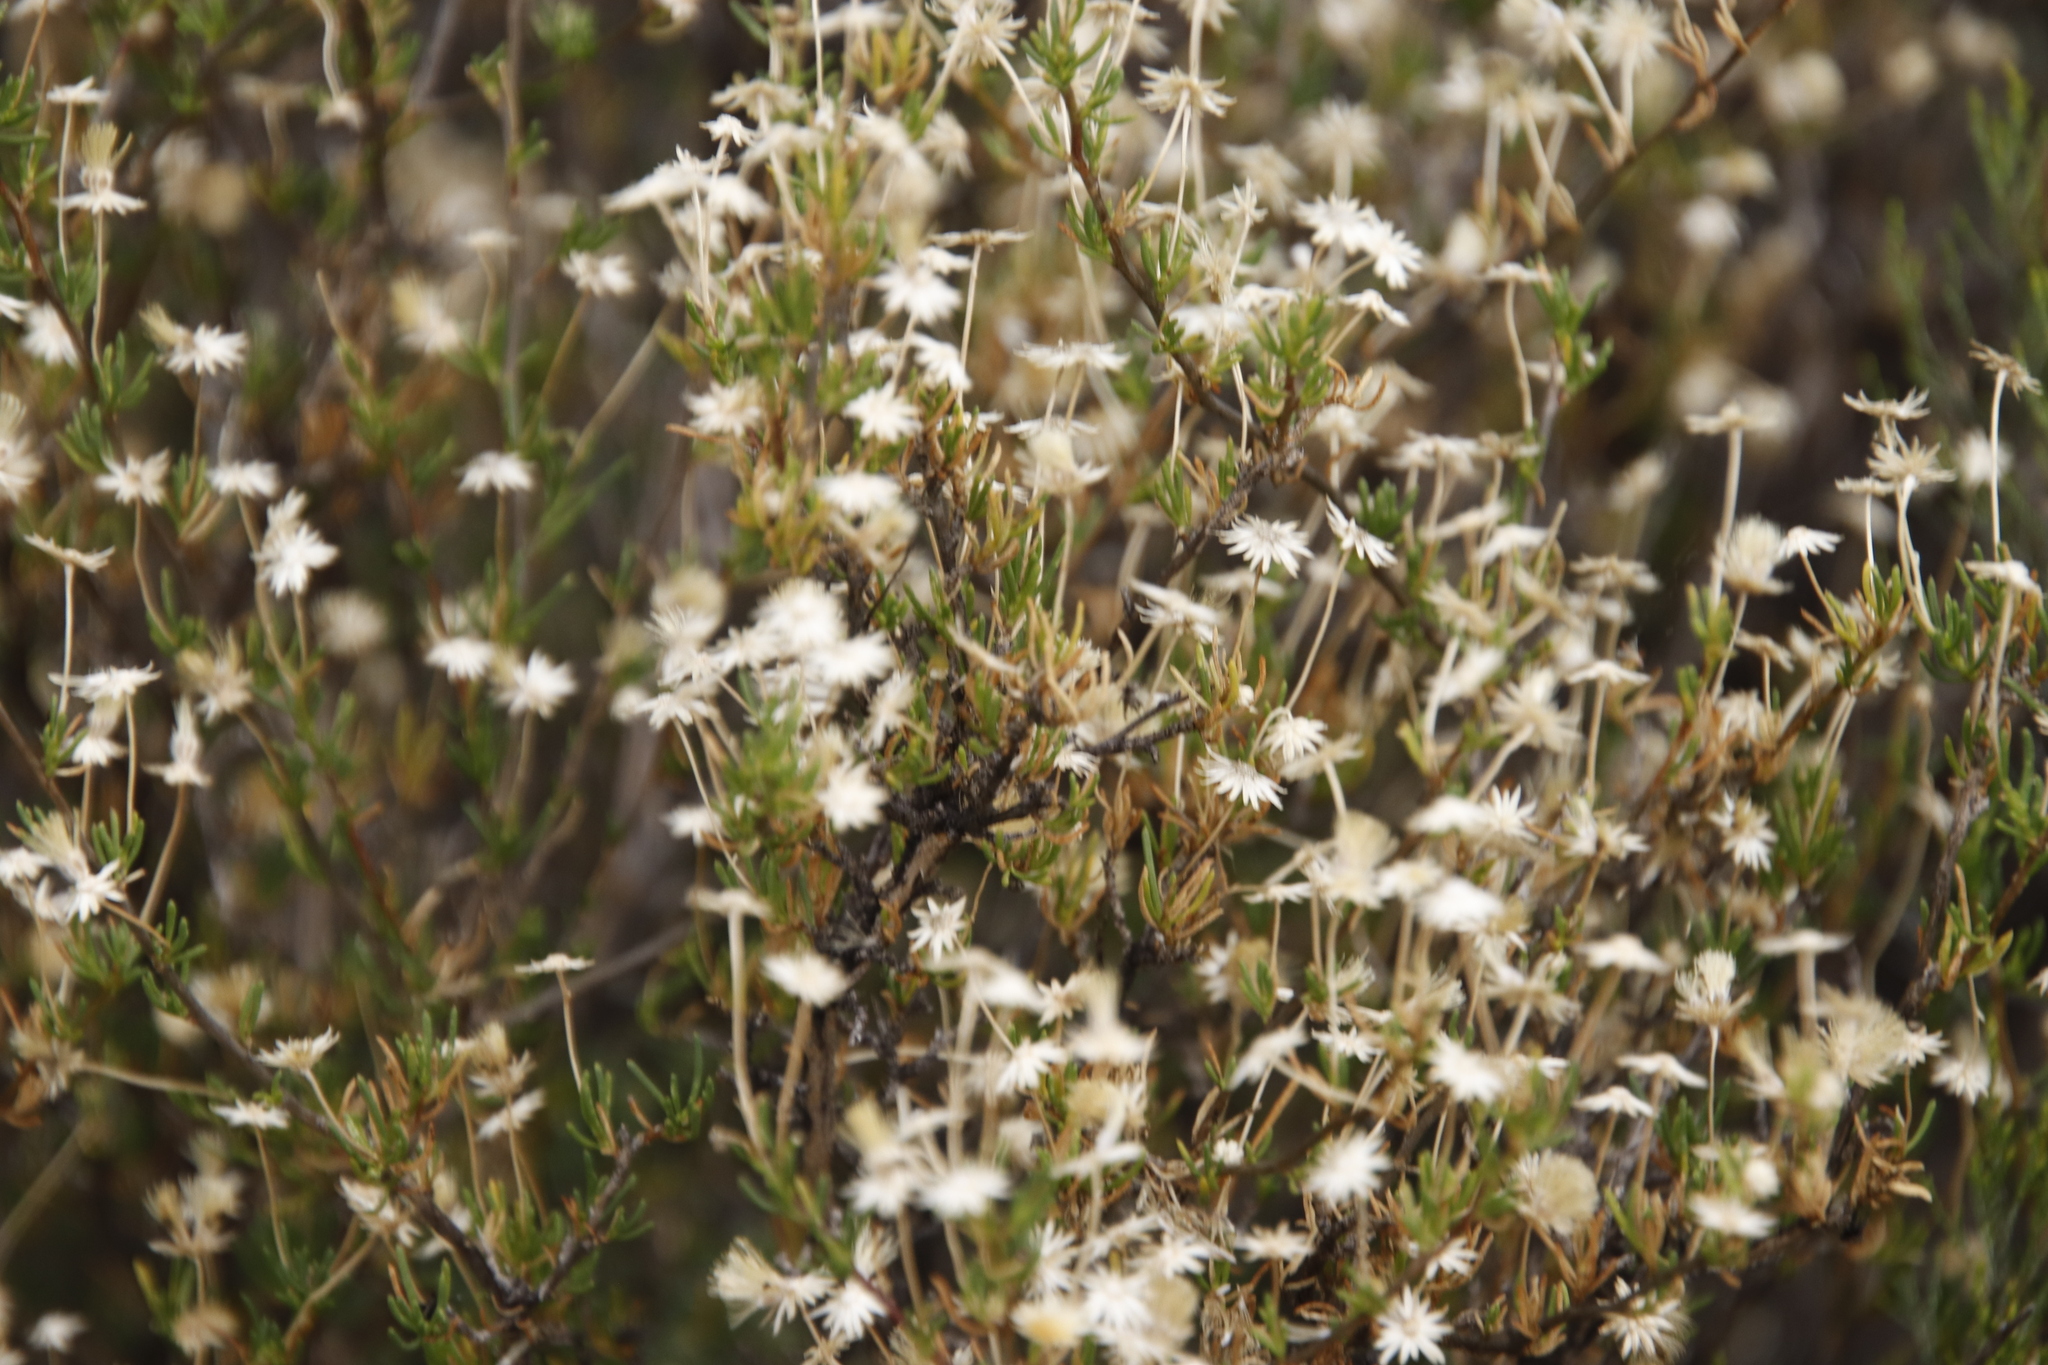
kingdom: Plantae
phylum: Tracheophyta
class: Magnoliopsida
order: Asterales
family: Asteraceae
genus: Felicia
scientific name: Felicia filifolia
